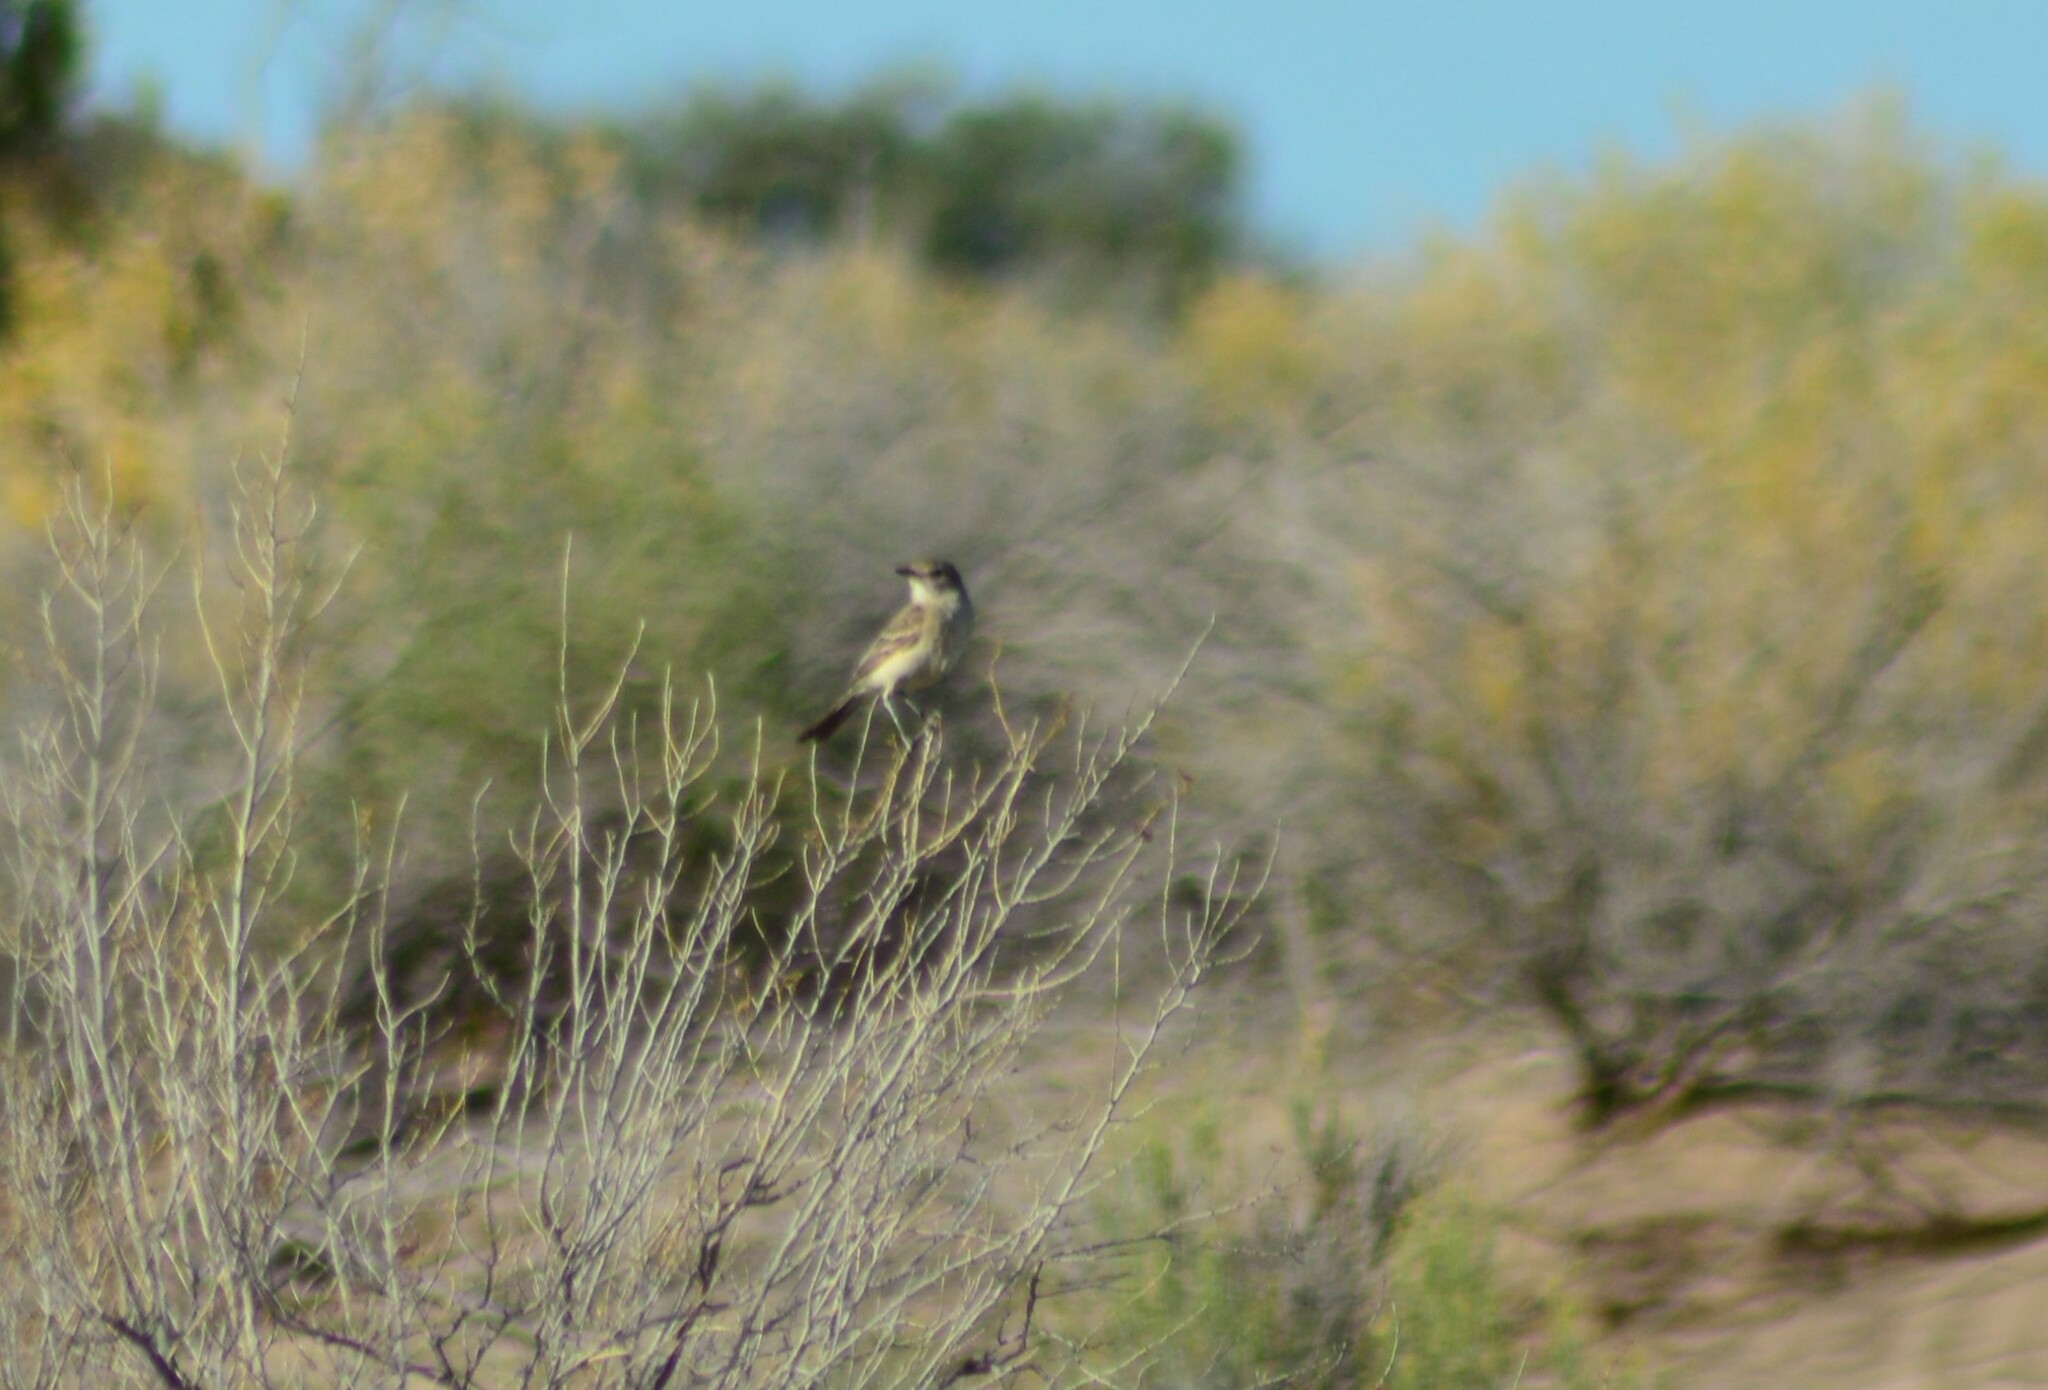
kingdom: Animalia
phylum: Chordata
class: Aves
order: Passeriformes
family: Tyrannidae
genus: Agriornis
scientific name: Agriornis murinus
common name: Lesser shrike-tyrant
